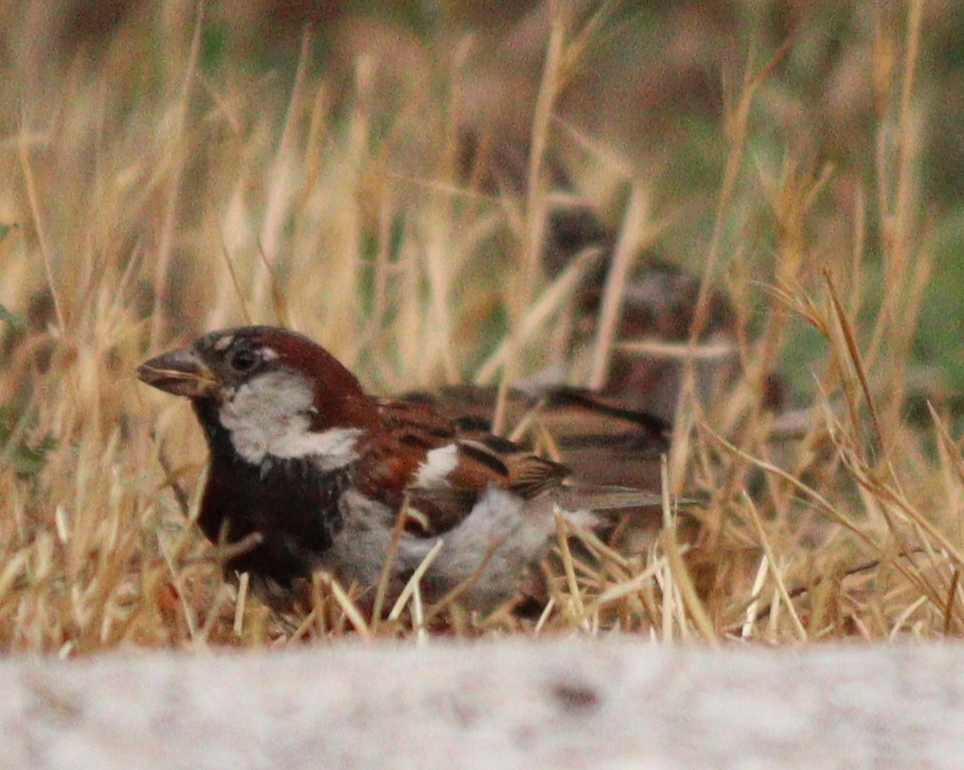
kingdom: Animalia
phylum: Chordata
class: Aves
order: Passeriformes
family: Passeridae
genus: Passer
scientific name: Passer domesticus
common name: House sparrow
